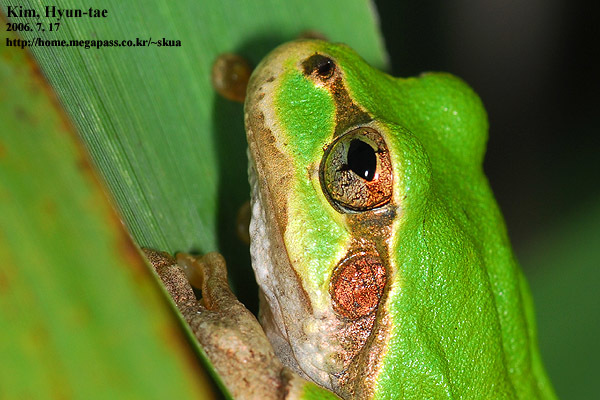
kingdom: Animalia
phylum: Chordata
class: Amphibia
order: Anura
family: Hylidae
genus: Dryophytes
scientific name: Dryophytes japonicus
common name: Japanese treefrog
